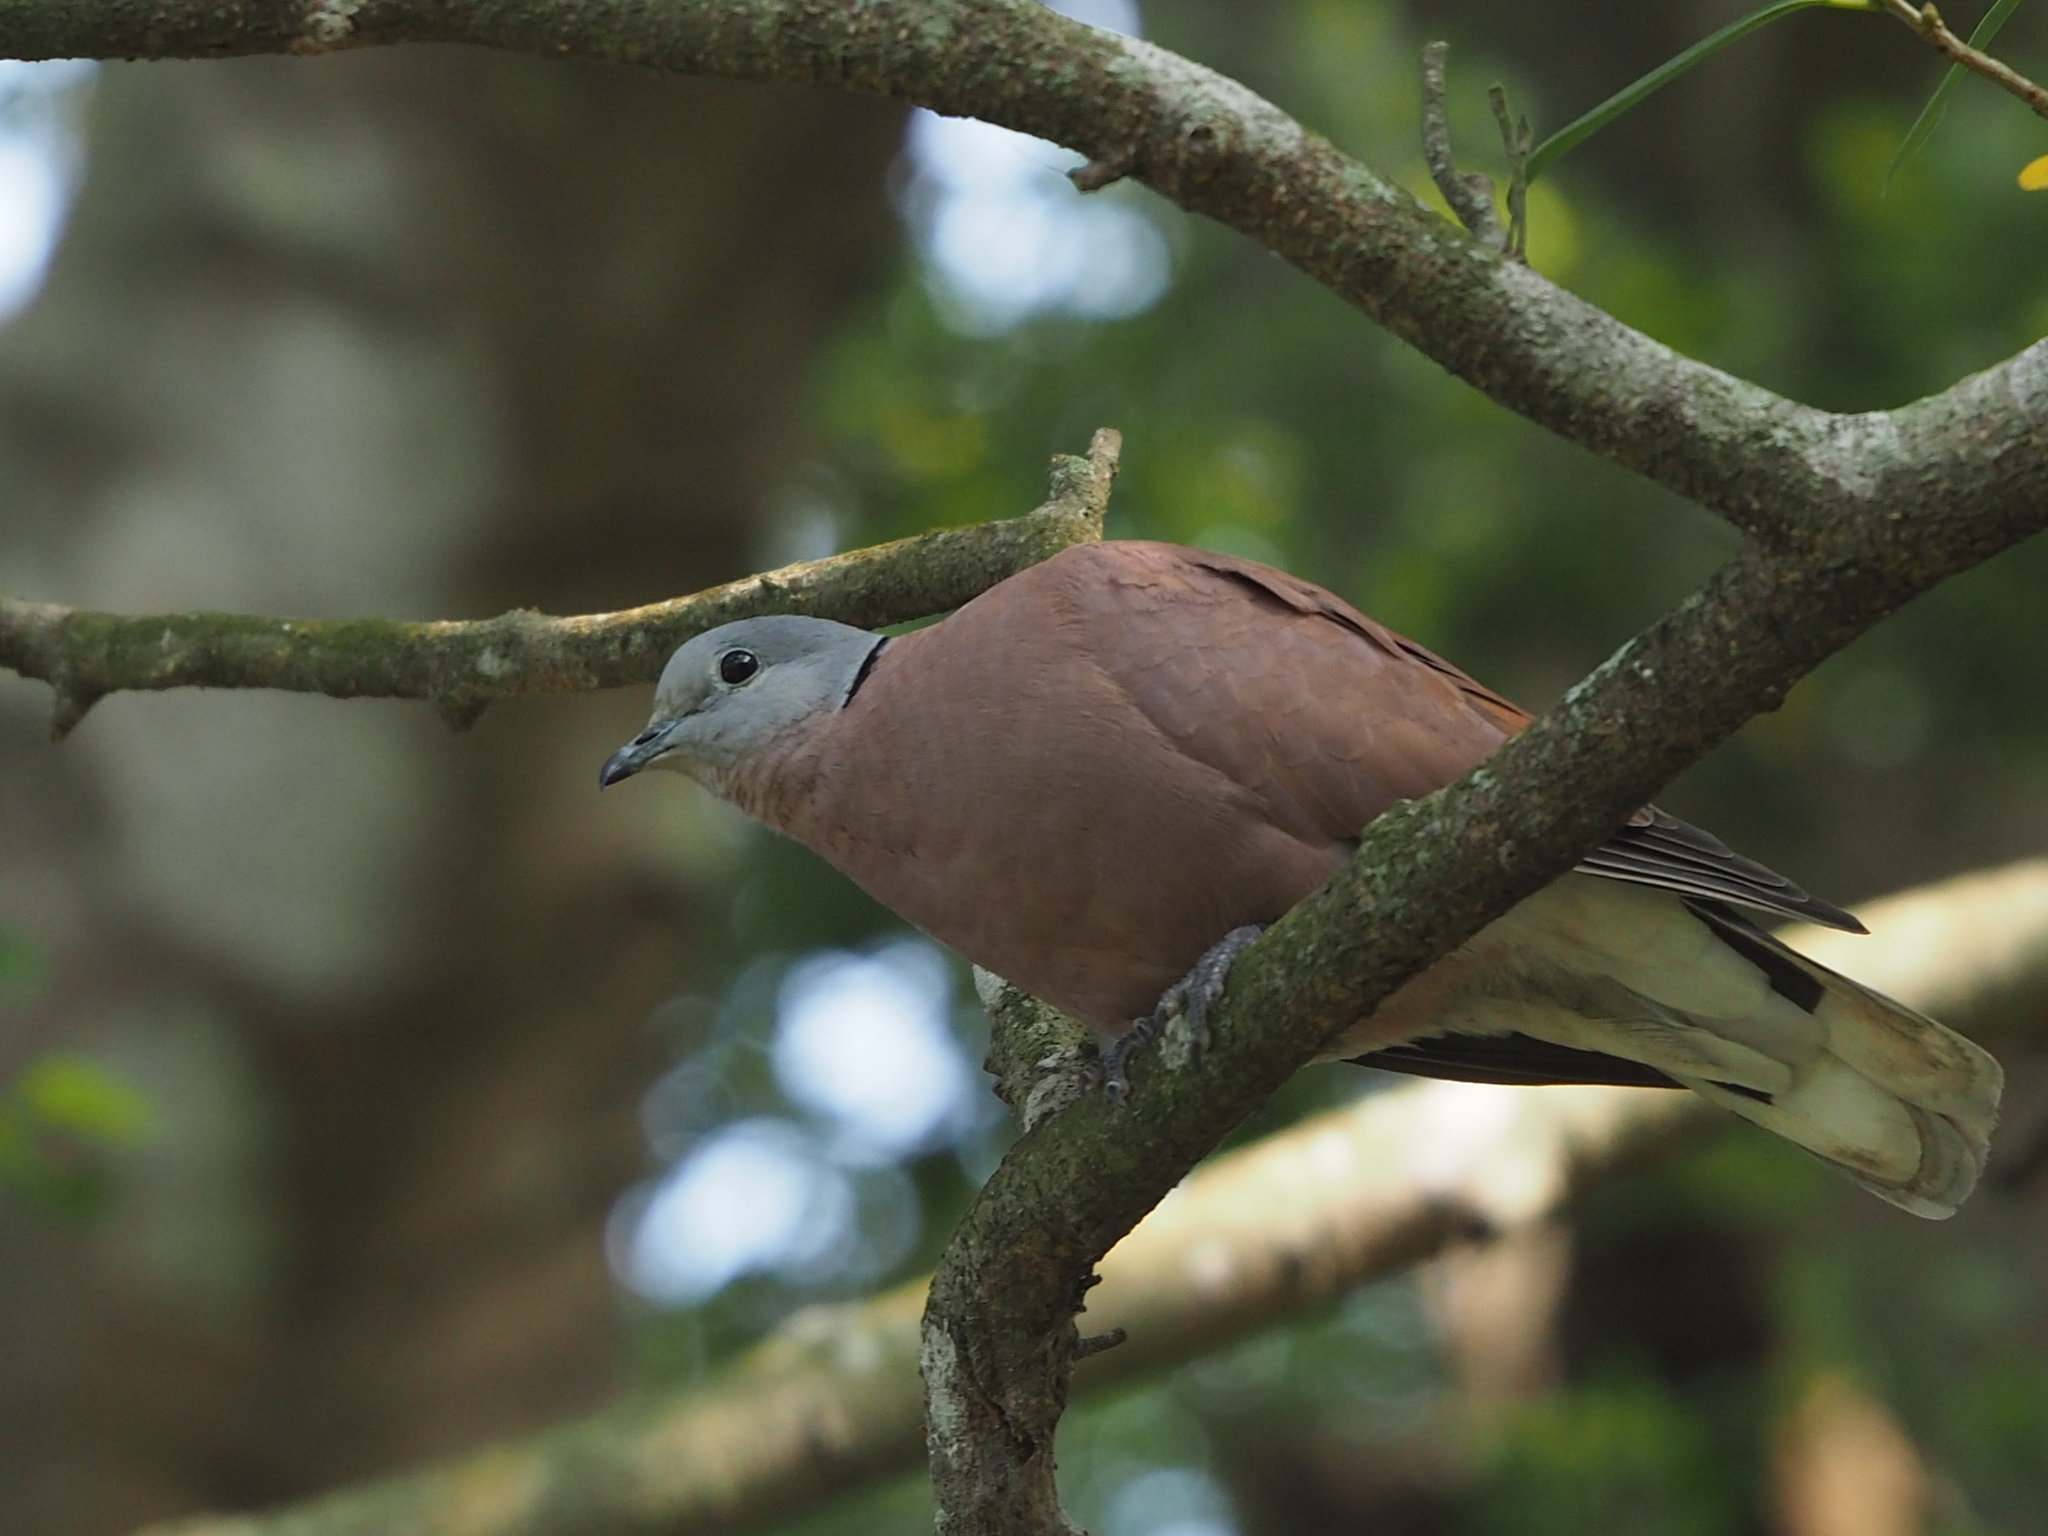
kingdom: Animalia
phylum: Chordata
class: Aves
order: Columbiformes
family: Columbidae
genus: Streptopelia
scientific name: Streptopelia tranquebarica
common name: Red turtle dove
